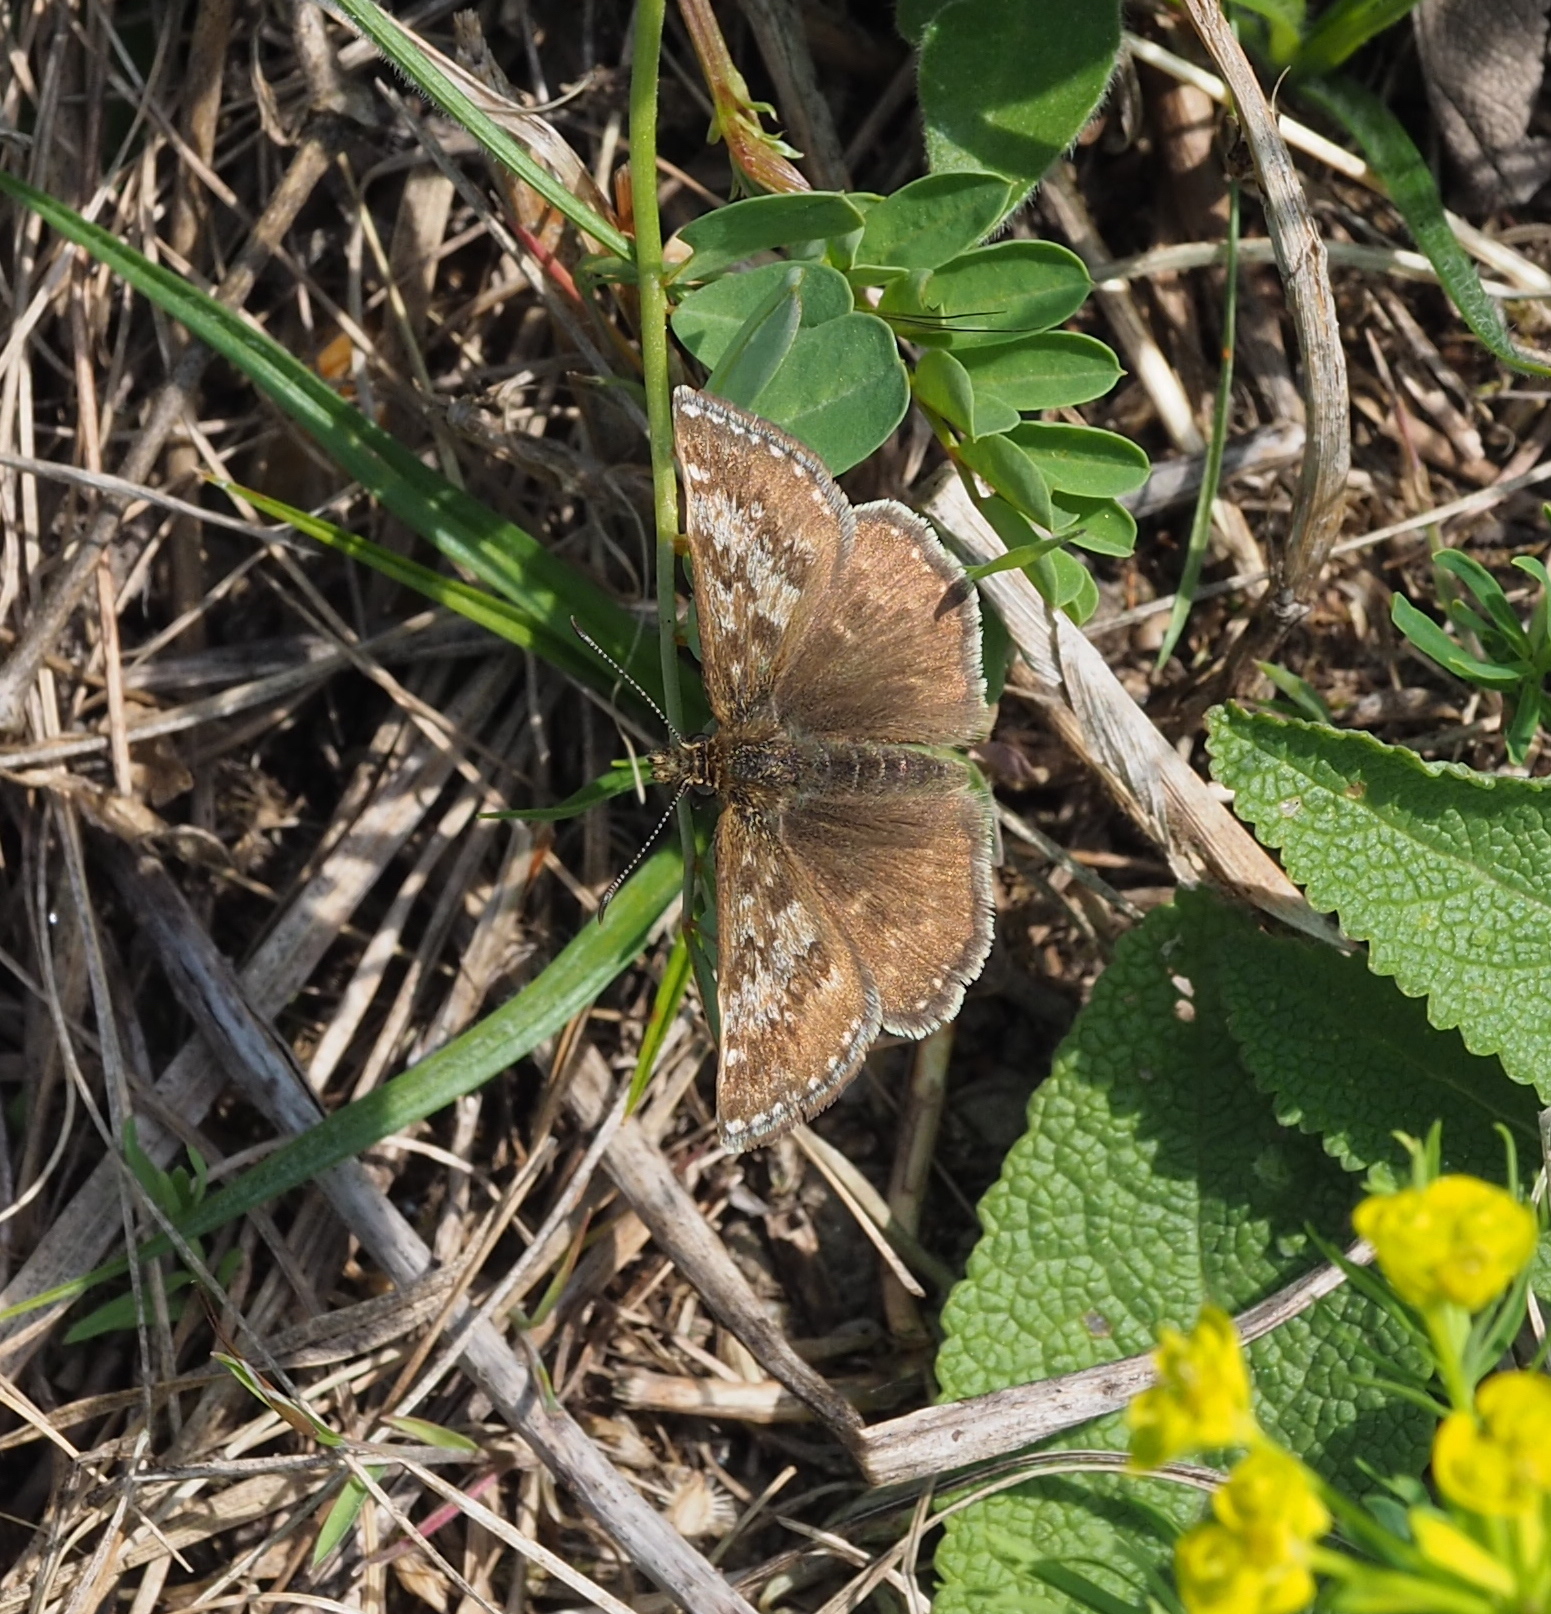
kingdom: Animalia
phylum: Arthropoda
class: Insecta
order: Lepidoptera
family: Hesperiidae
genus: Erynnis
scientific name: Erynnis tages
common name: Dingy skipper
